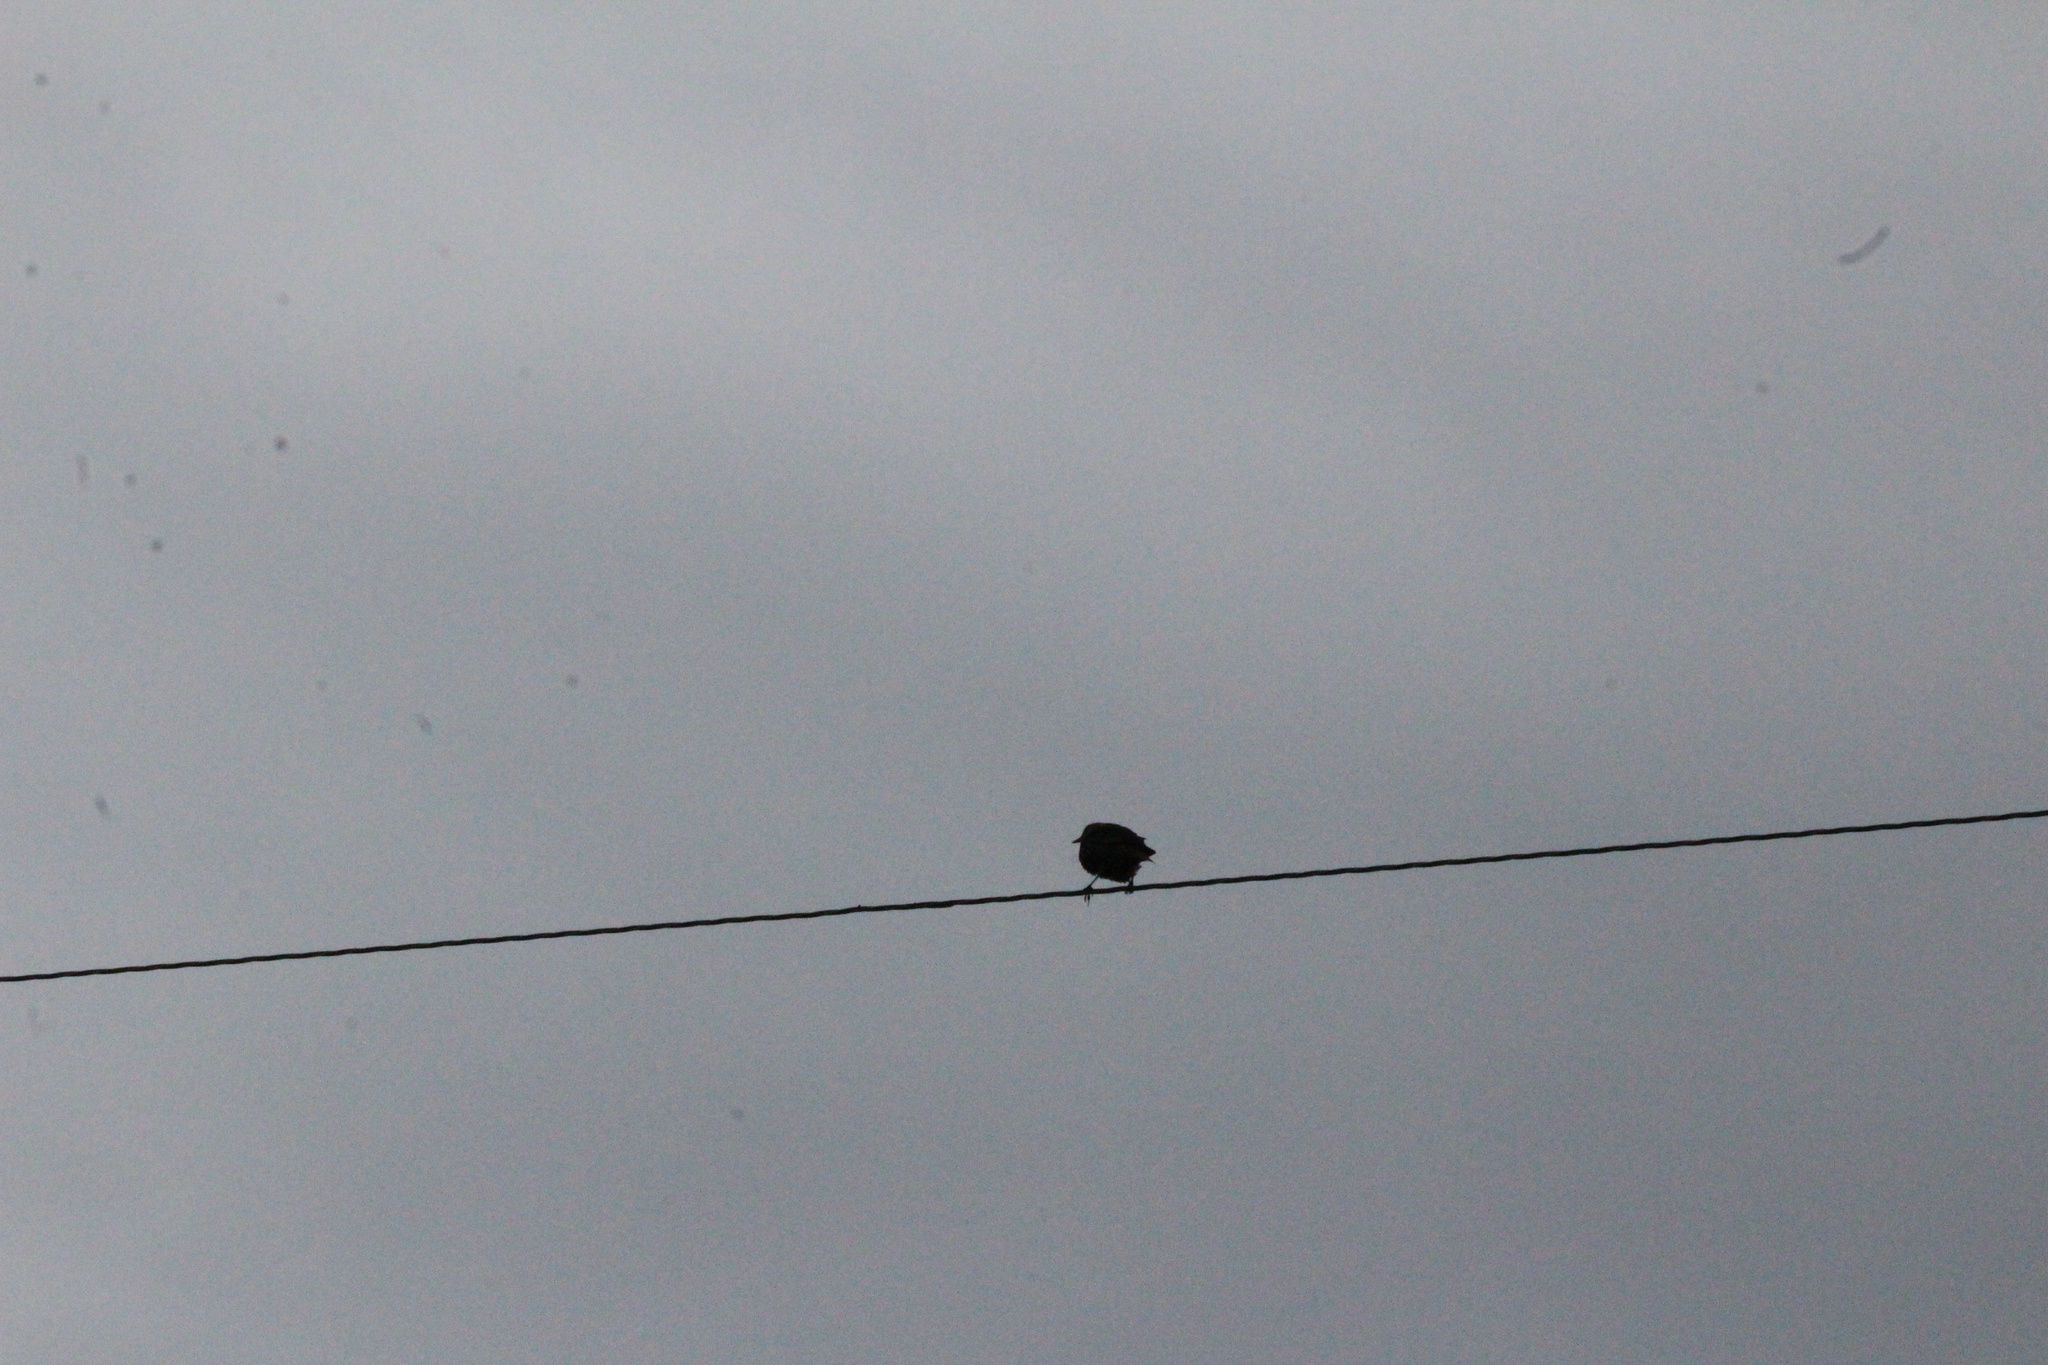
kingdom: Animalia
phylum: Chordata
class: Aves
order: Passeriformes
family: Sturnidae
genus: Sturnus
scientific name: Sturnus vulgaris
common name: Common starling
